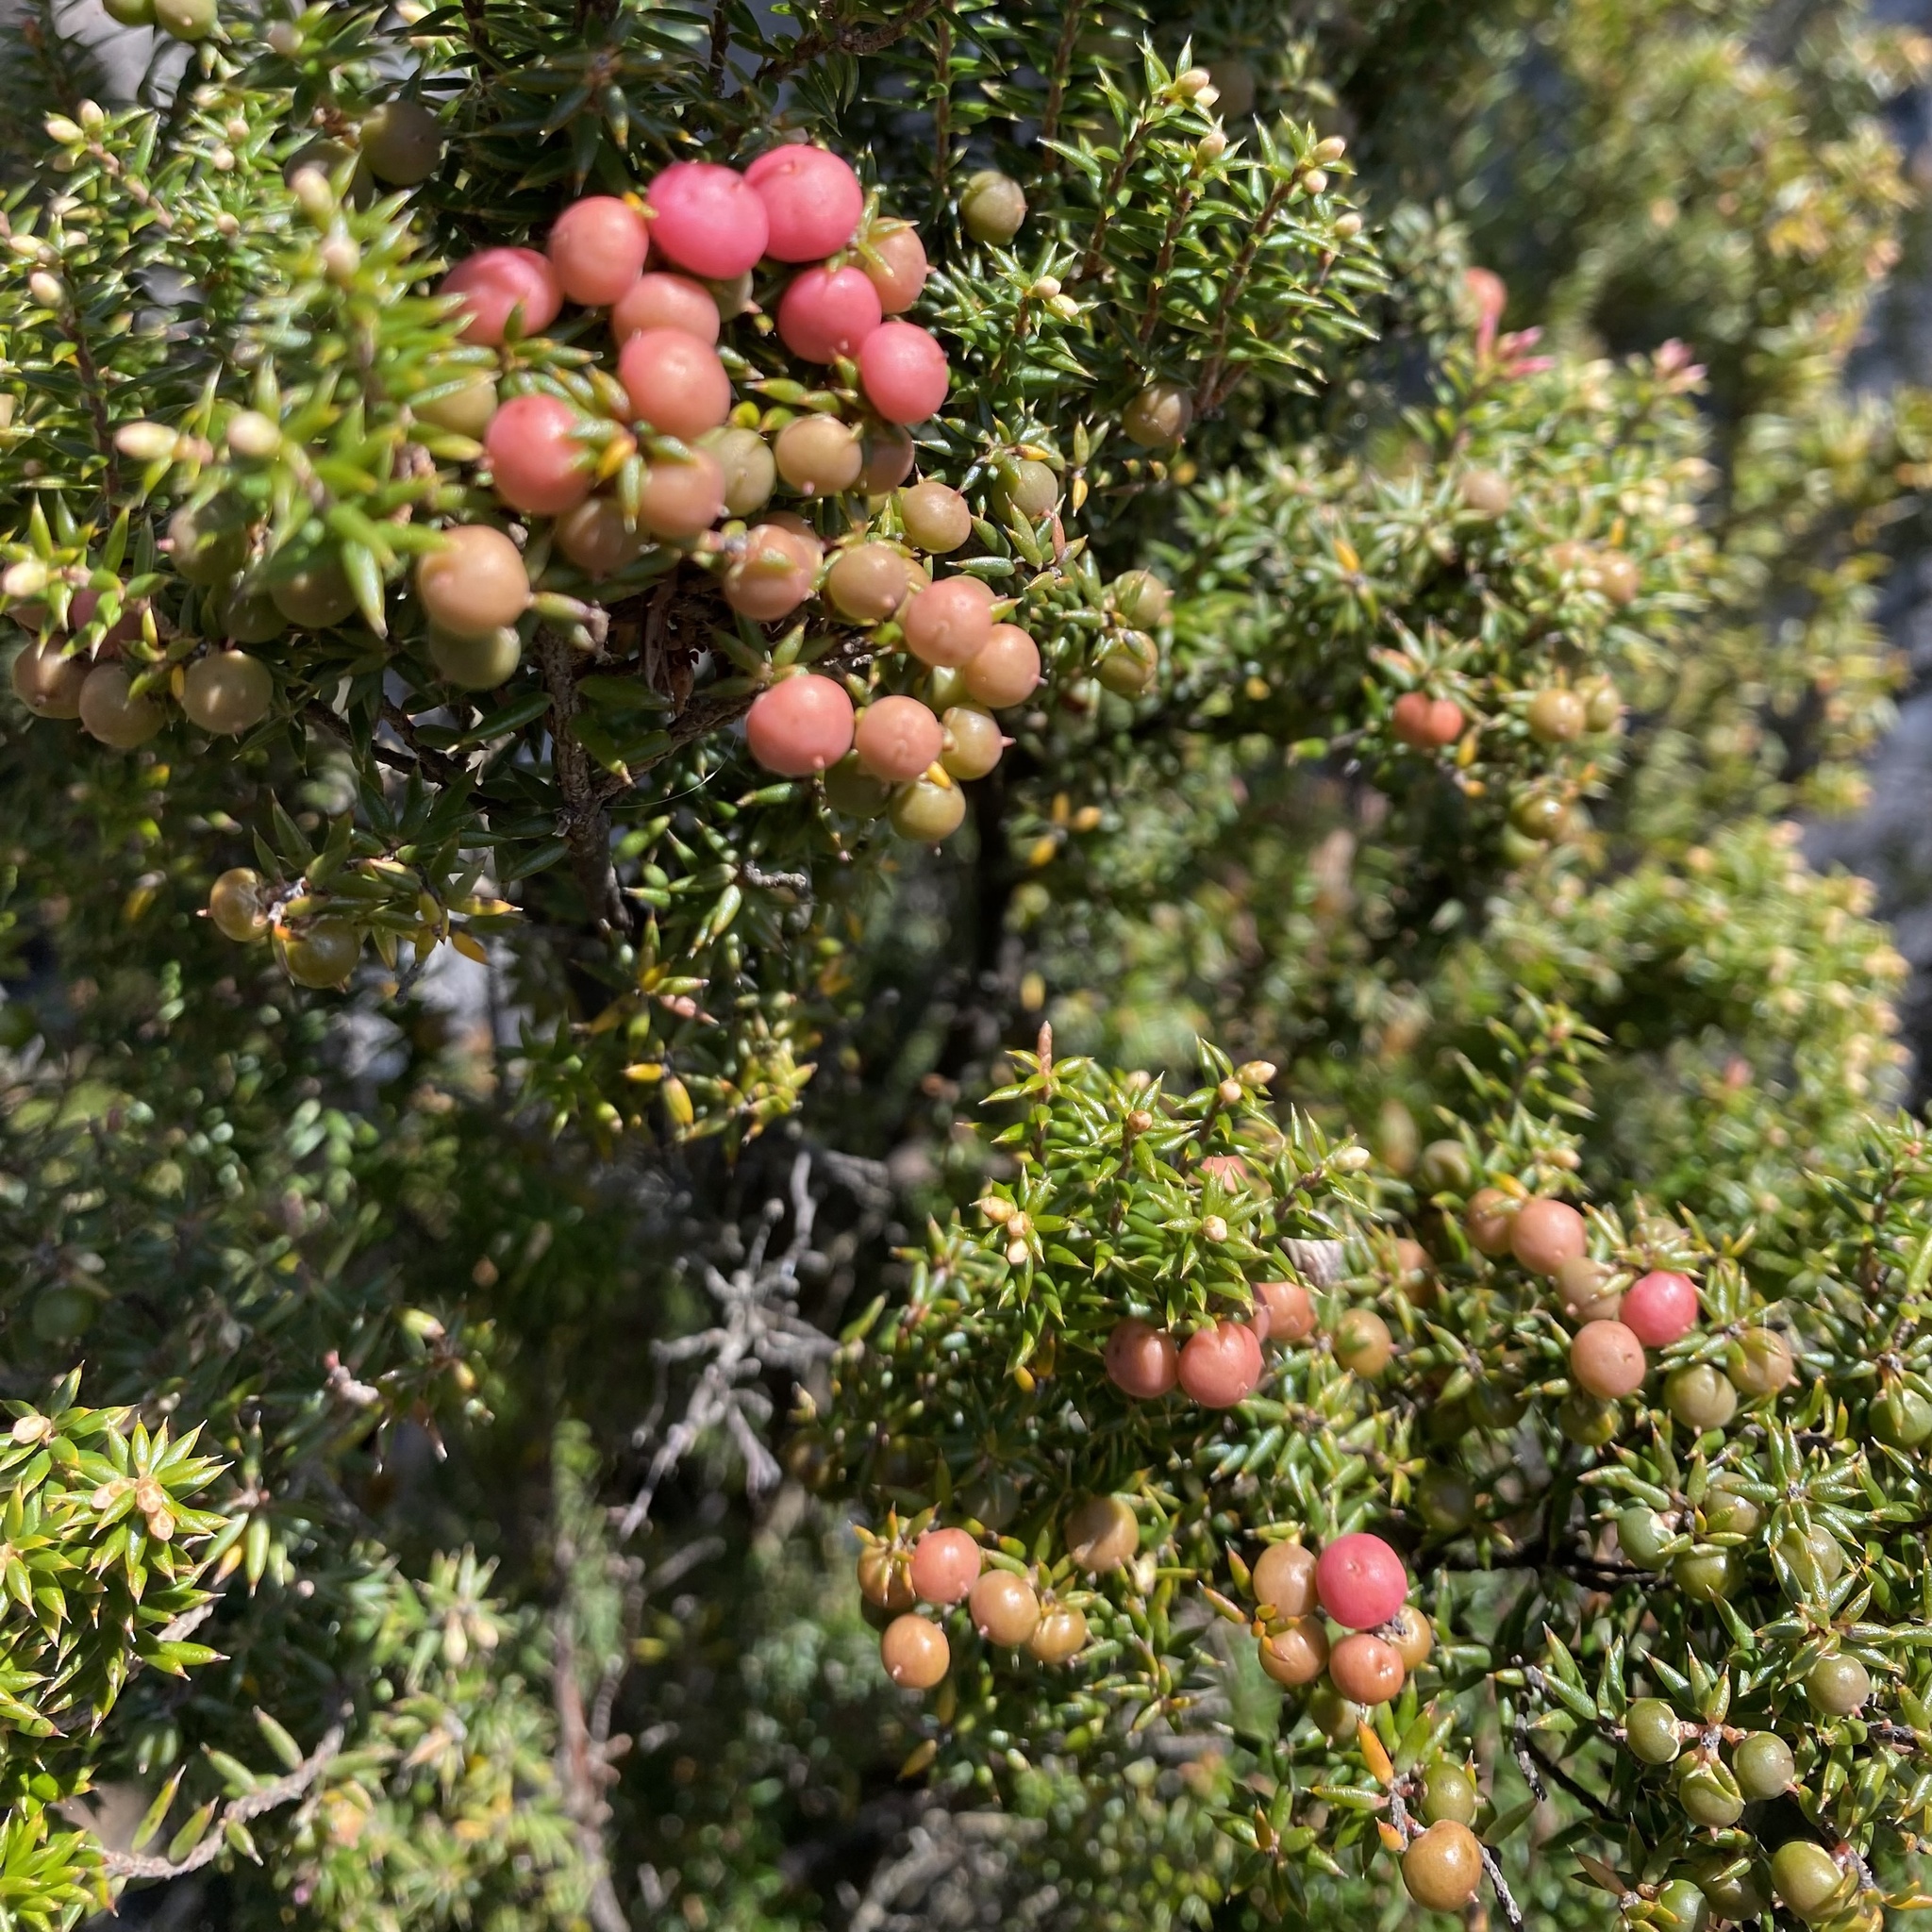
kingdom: Plantae
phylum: Tracheophyta
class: Magnoliopsida
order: Ericales
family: Ericaceae
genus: Leptecophylla
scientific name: Leptecophylla parvifolia
